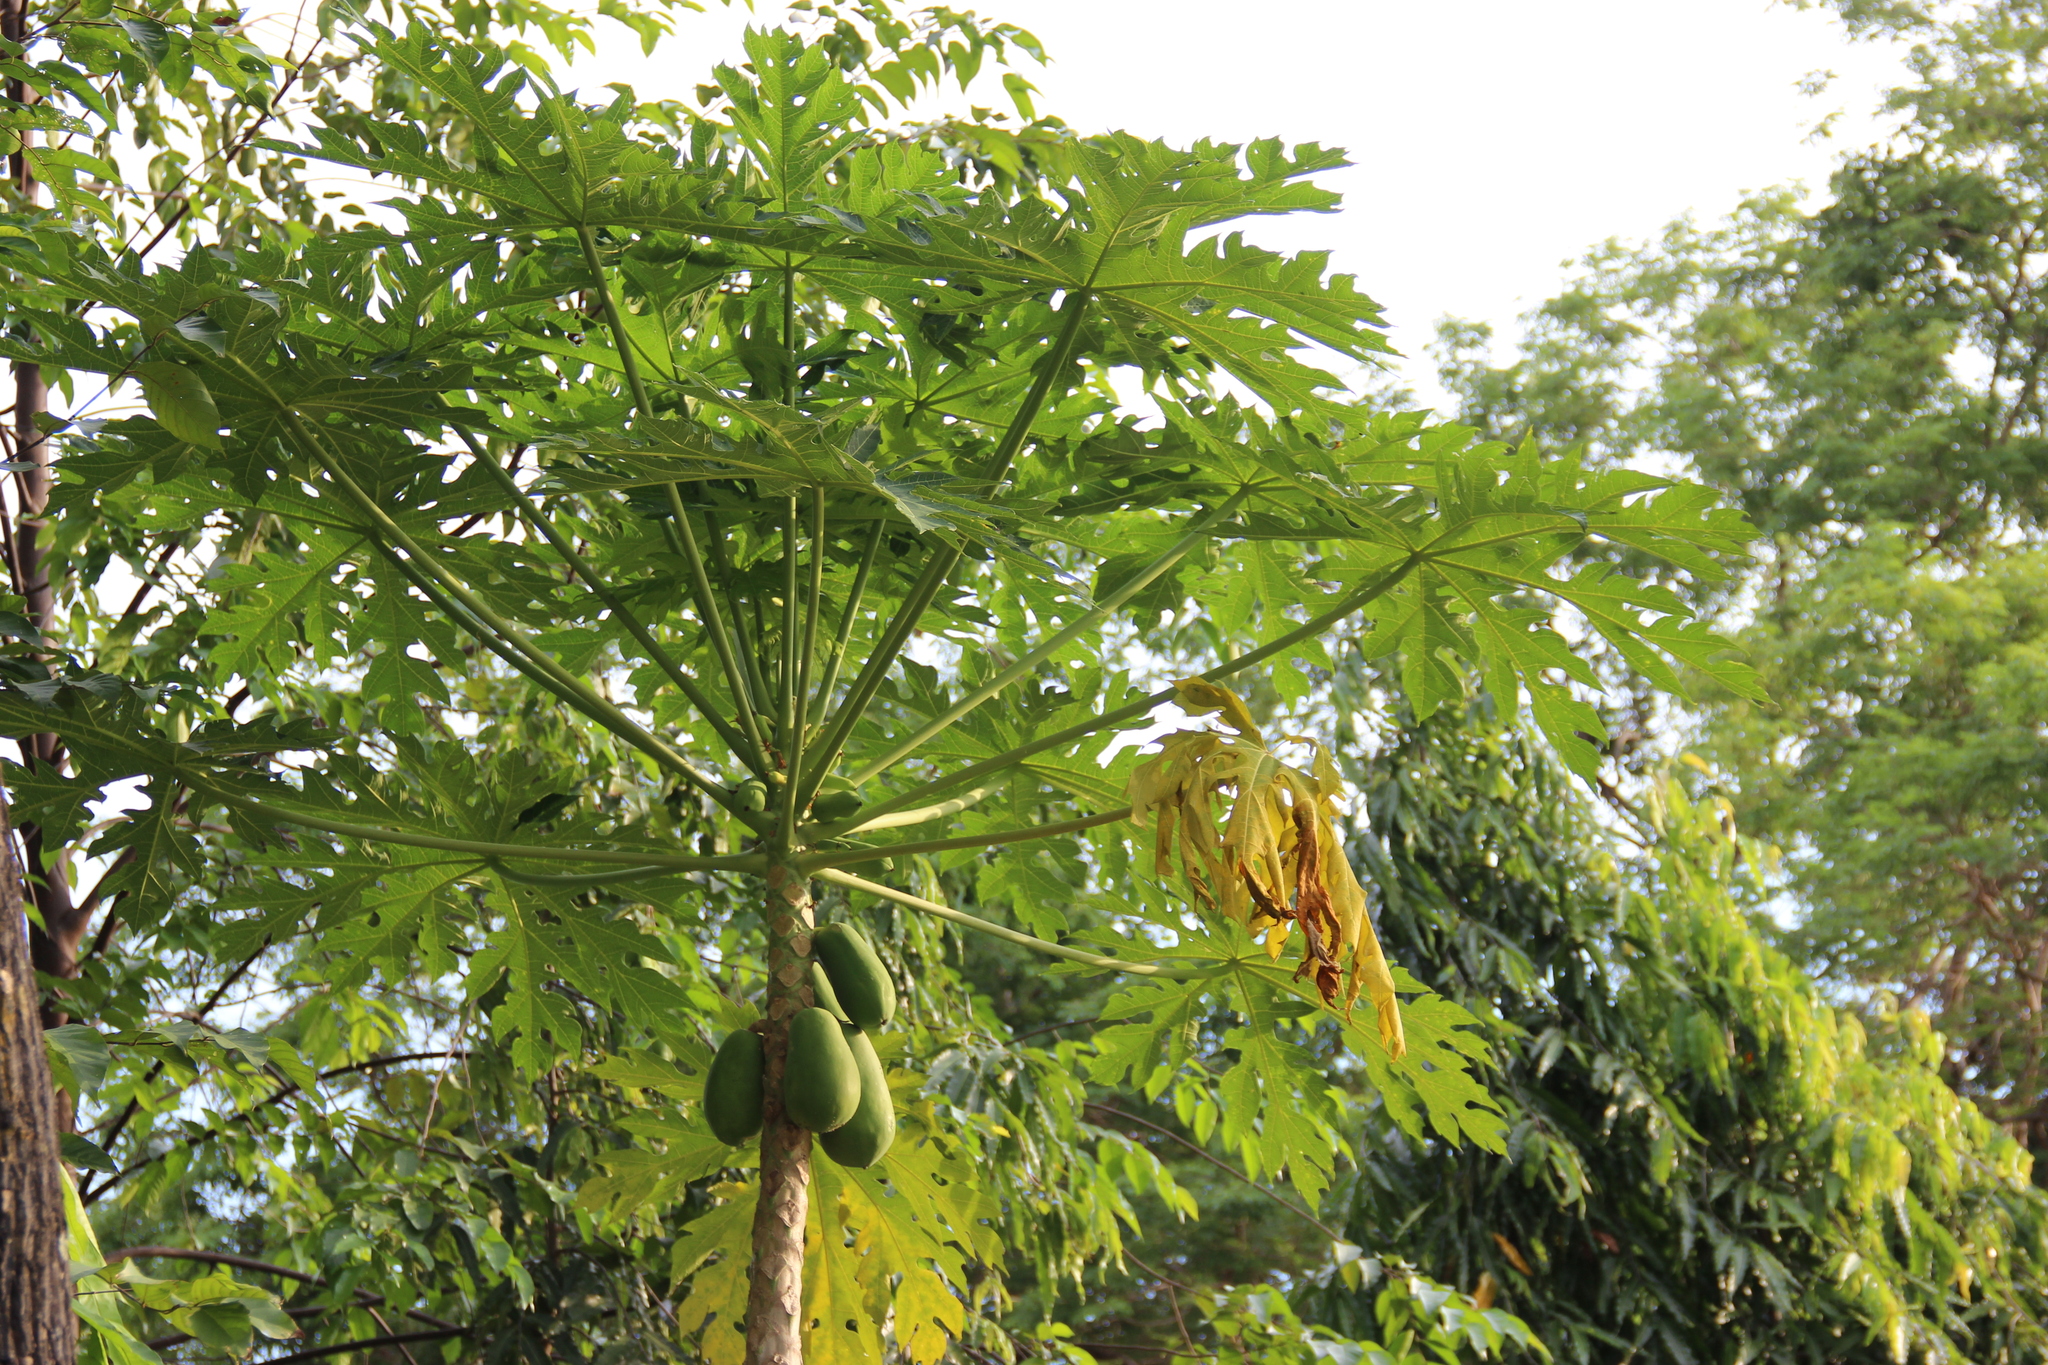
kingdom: Plantae
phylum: Tracheophyta
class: Magnoliopsida
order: Brassicales
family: Caricaceae
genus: Carica
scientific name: Carica papaya
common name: Papaya
